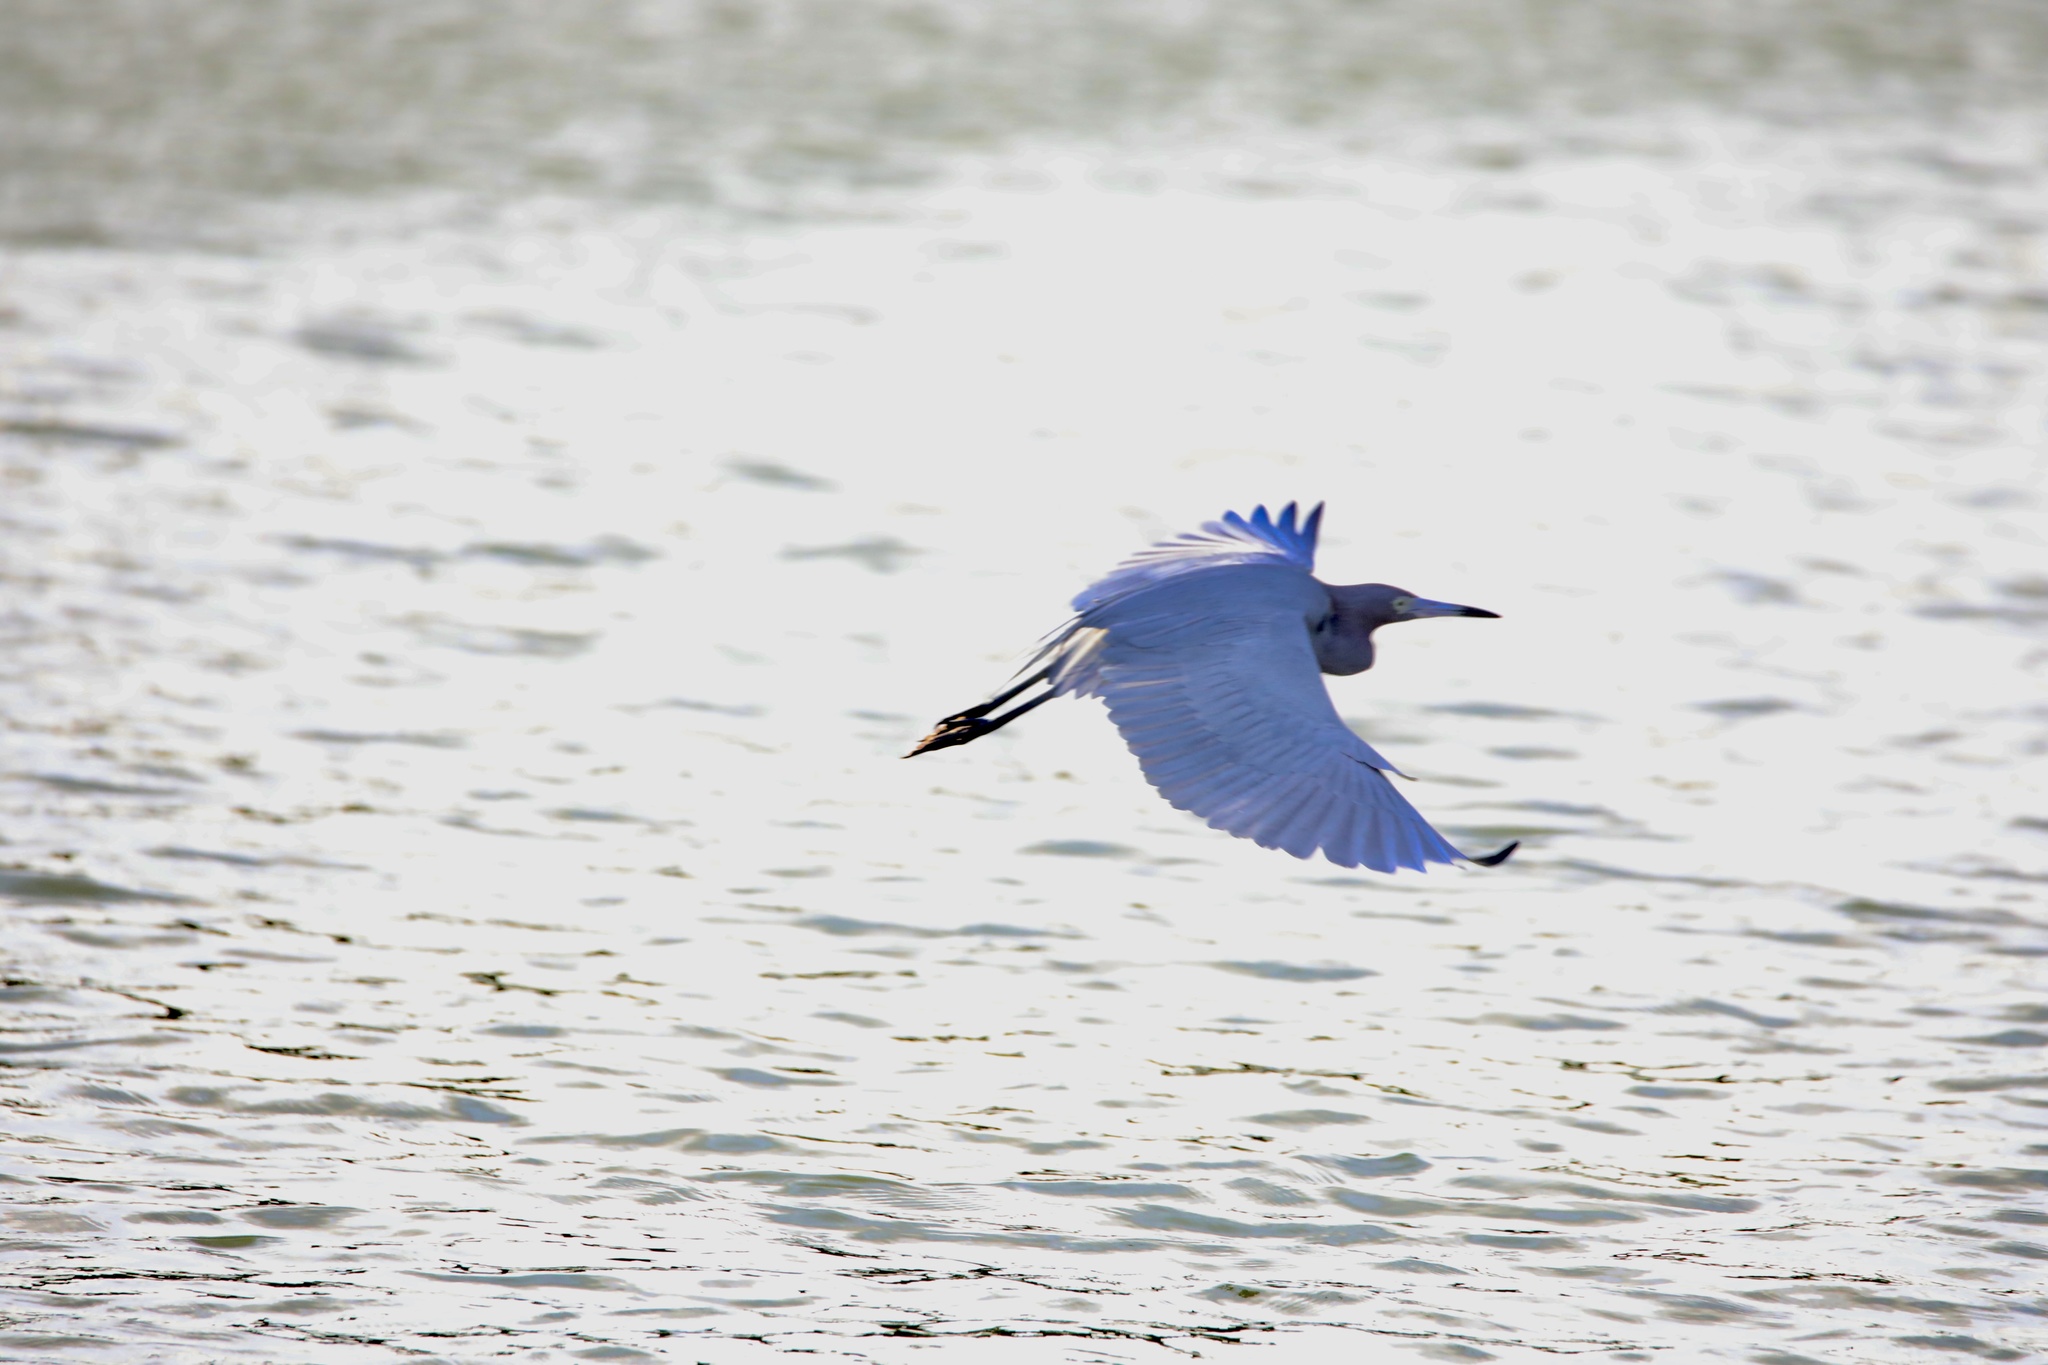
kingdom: Animalia
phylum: Chordata
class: Aves
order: Pelecaniformes
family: Ardeidae
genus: Egretta
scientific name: Egretta caerulea
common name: Little blue heron
